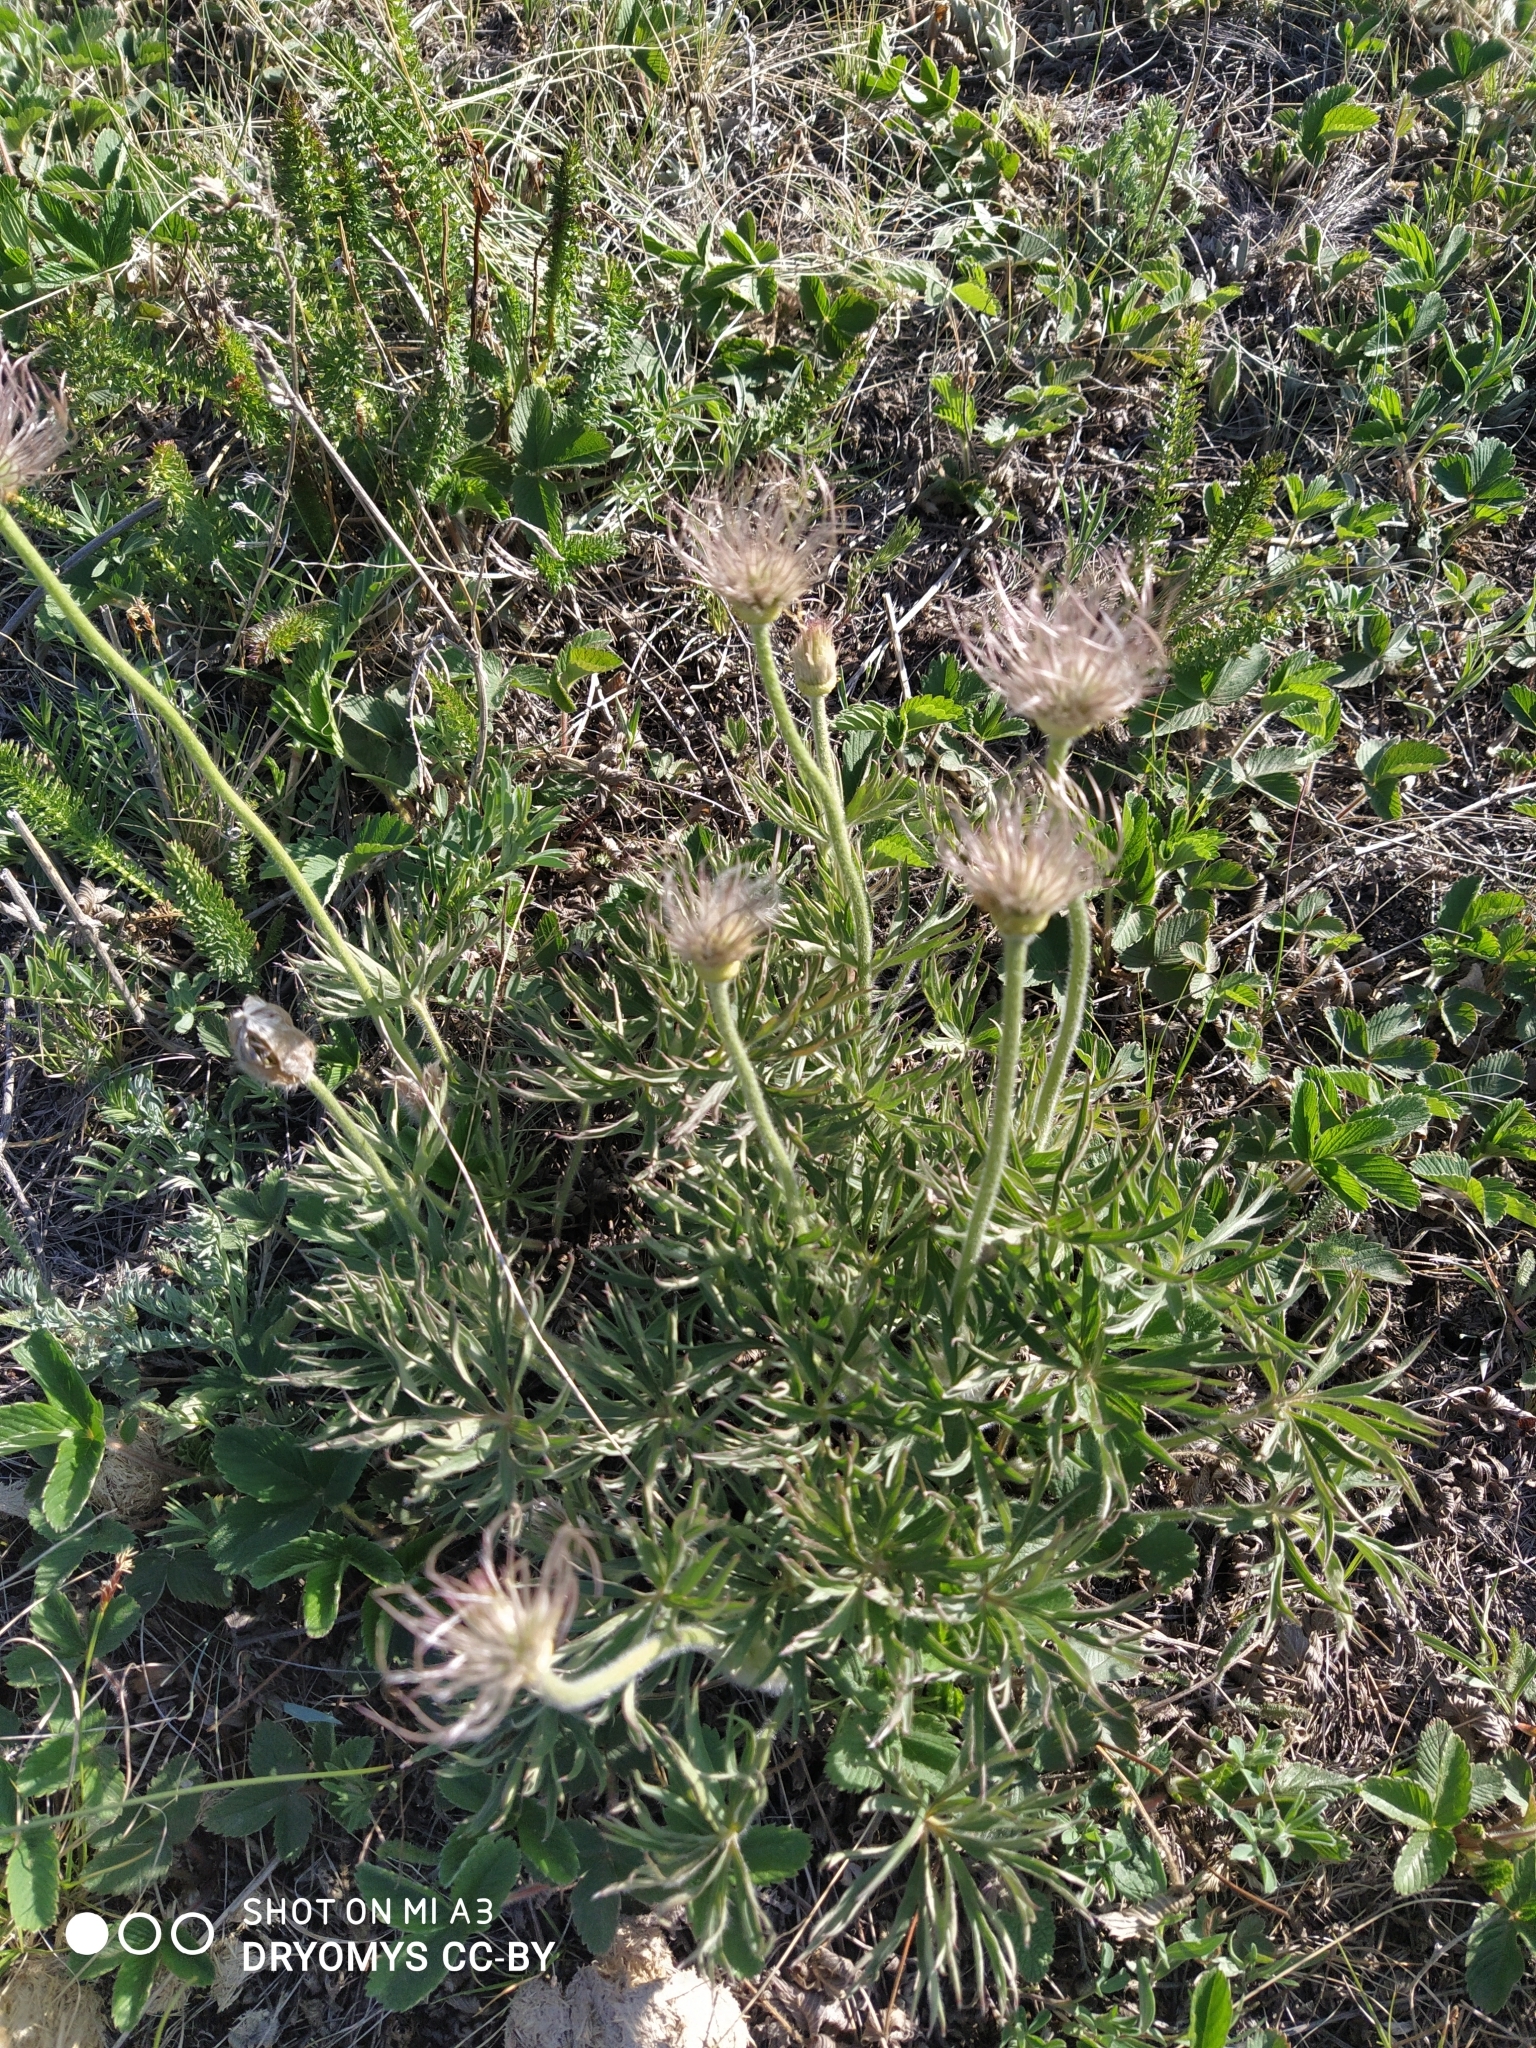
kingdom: Plantae
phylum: Tracheophyta
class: Magnoliopsida
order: Ranunculales
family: Ranunculaceae
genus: Pulsatilla
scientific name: Pulsatilla patens
